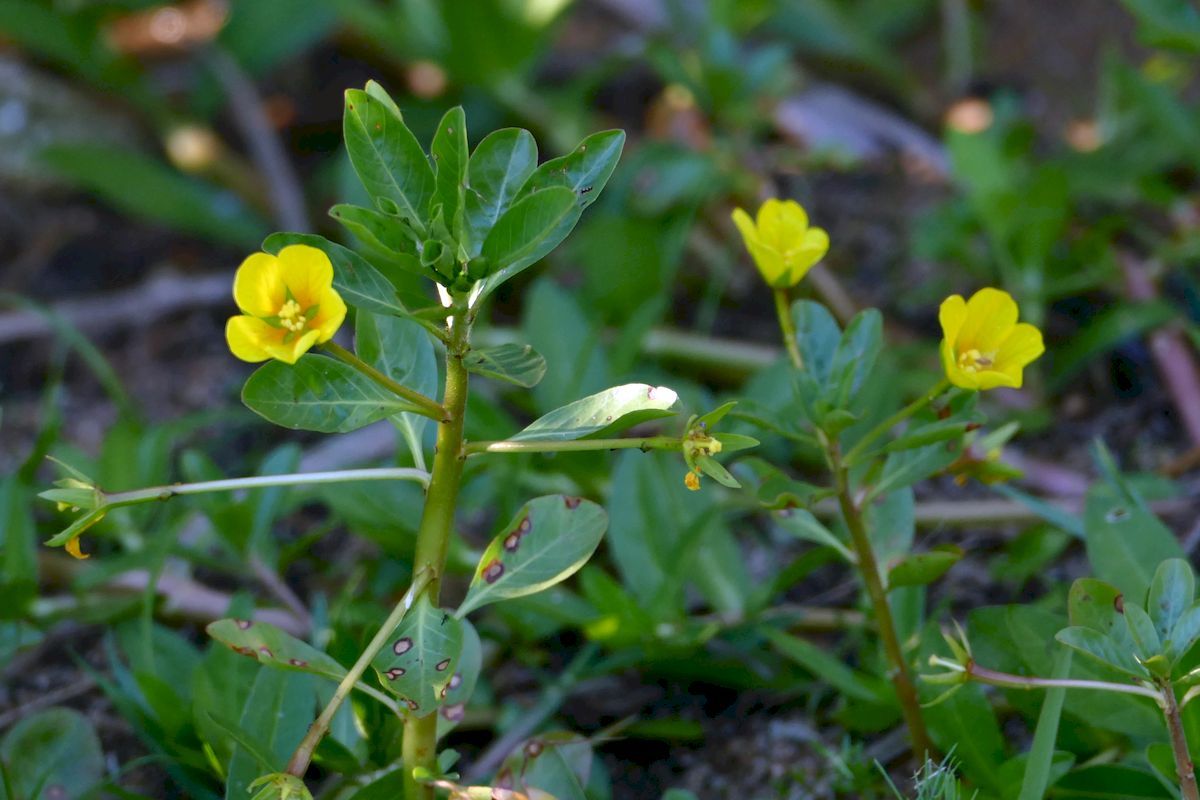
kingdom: Plantae
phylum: Tracheophyta
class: Magnoliopsida
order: Myrtales
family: Onagraceae
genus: Ludwigia
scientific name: Ludwigia peploides
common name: Floating primrose-willow
